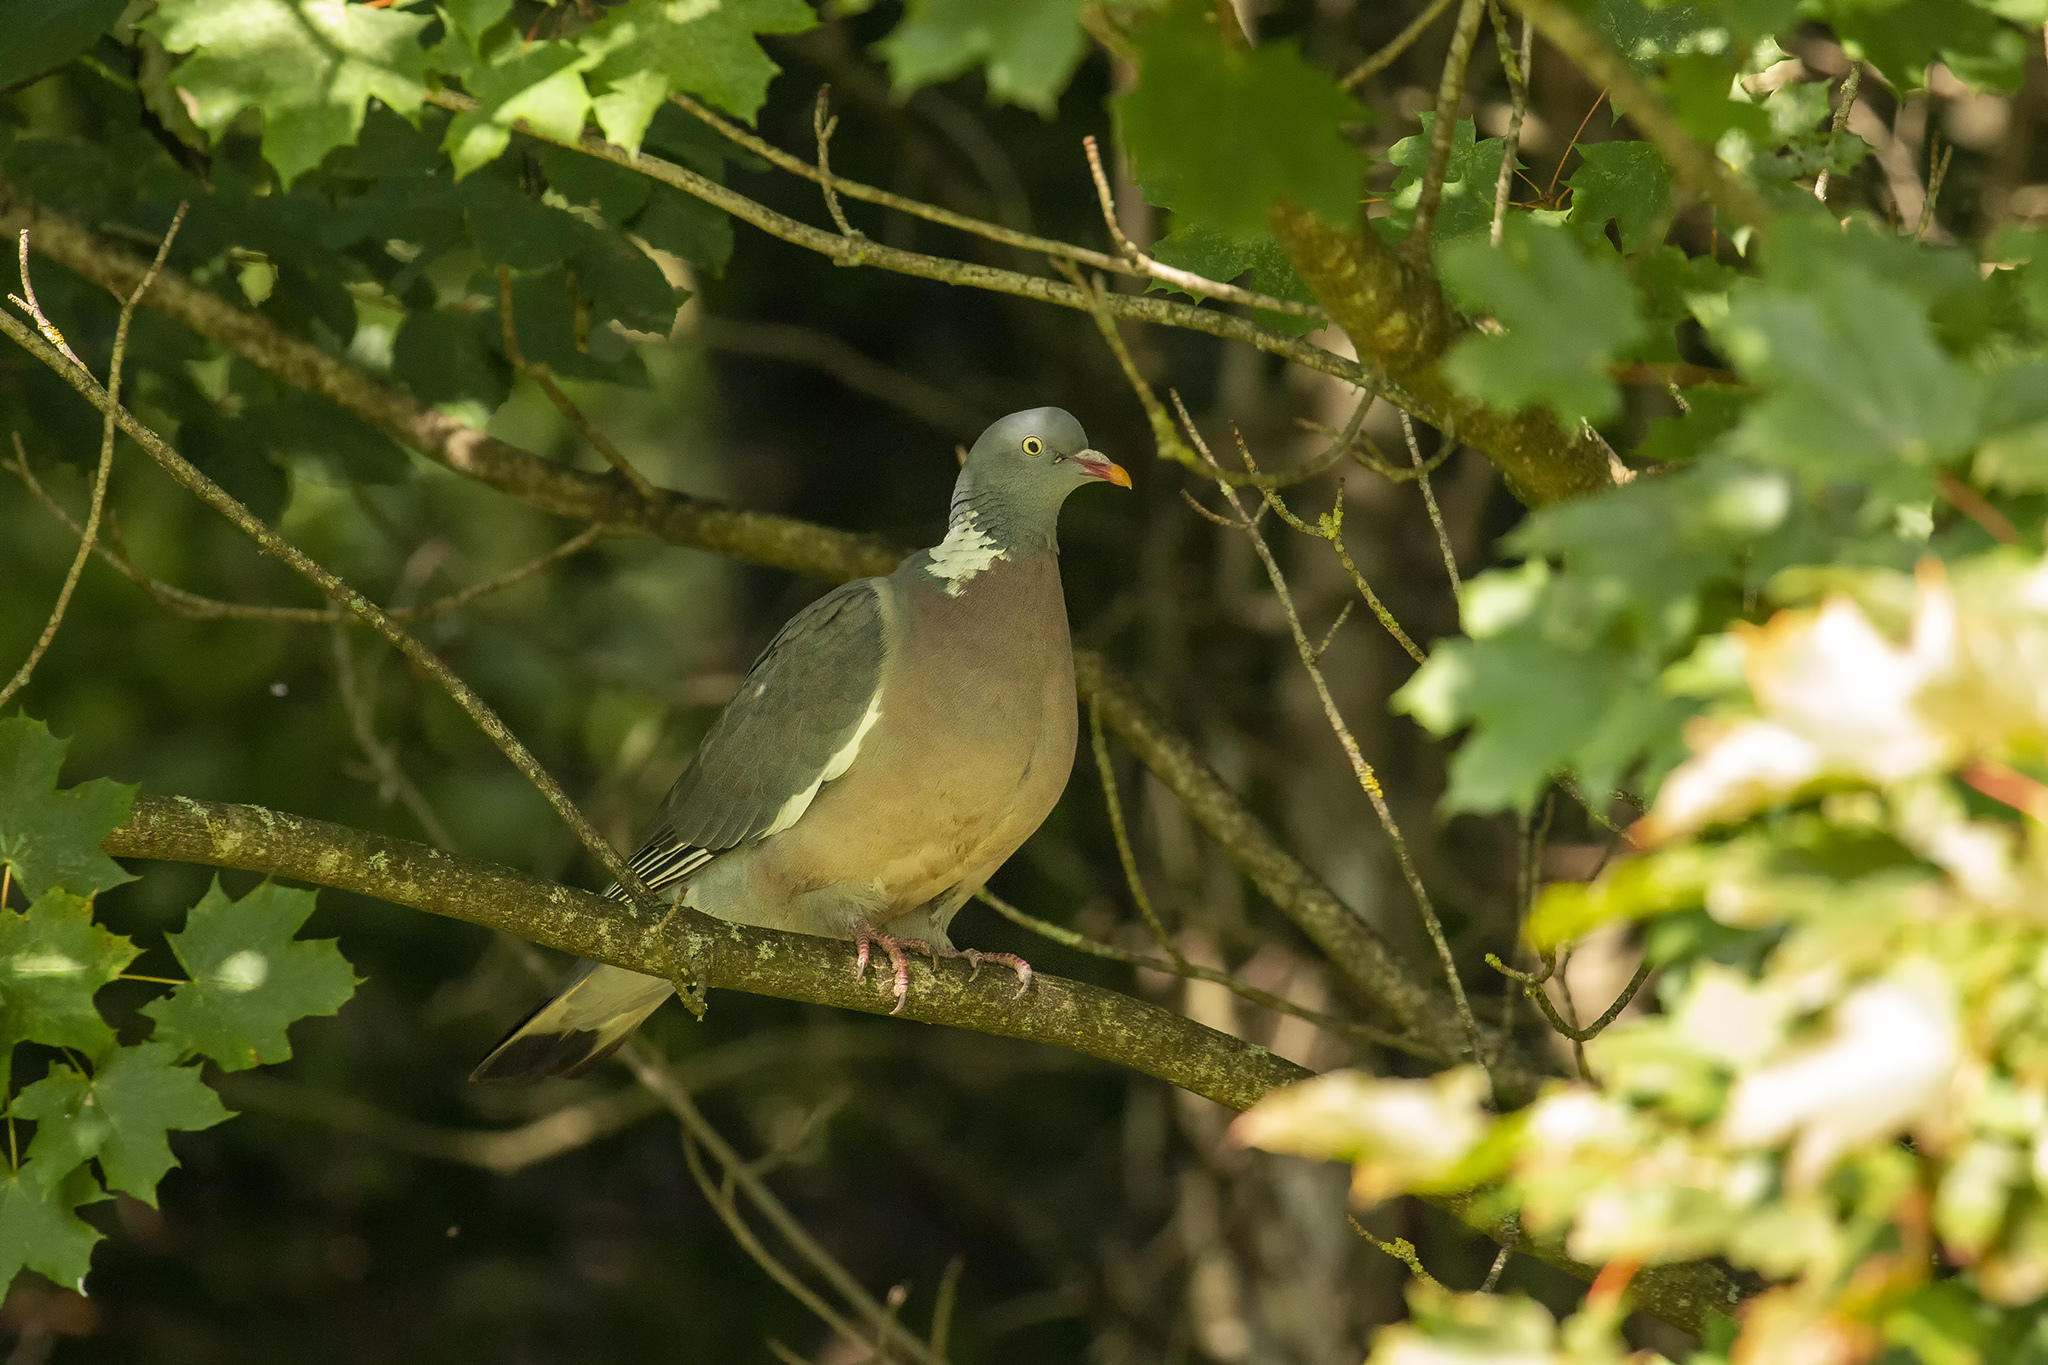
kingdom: Animalia
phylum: Chordata
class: Aves
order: Columbiformes
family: Columbidae
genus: Columba
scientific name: Columba palumbus
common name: Common wood pigeon
